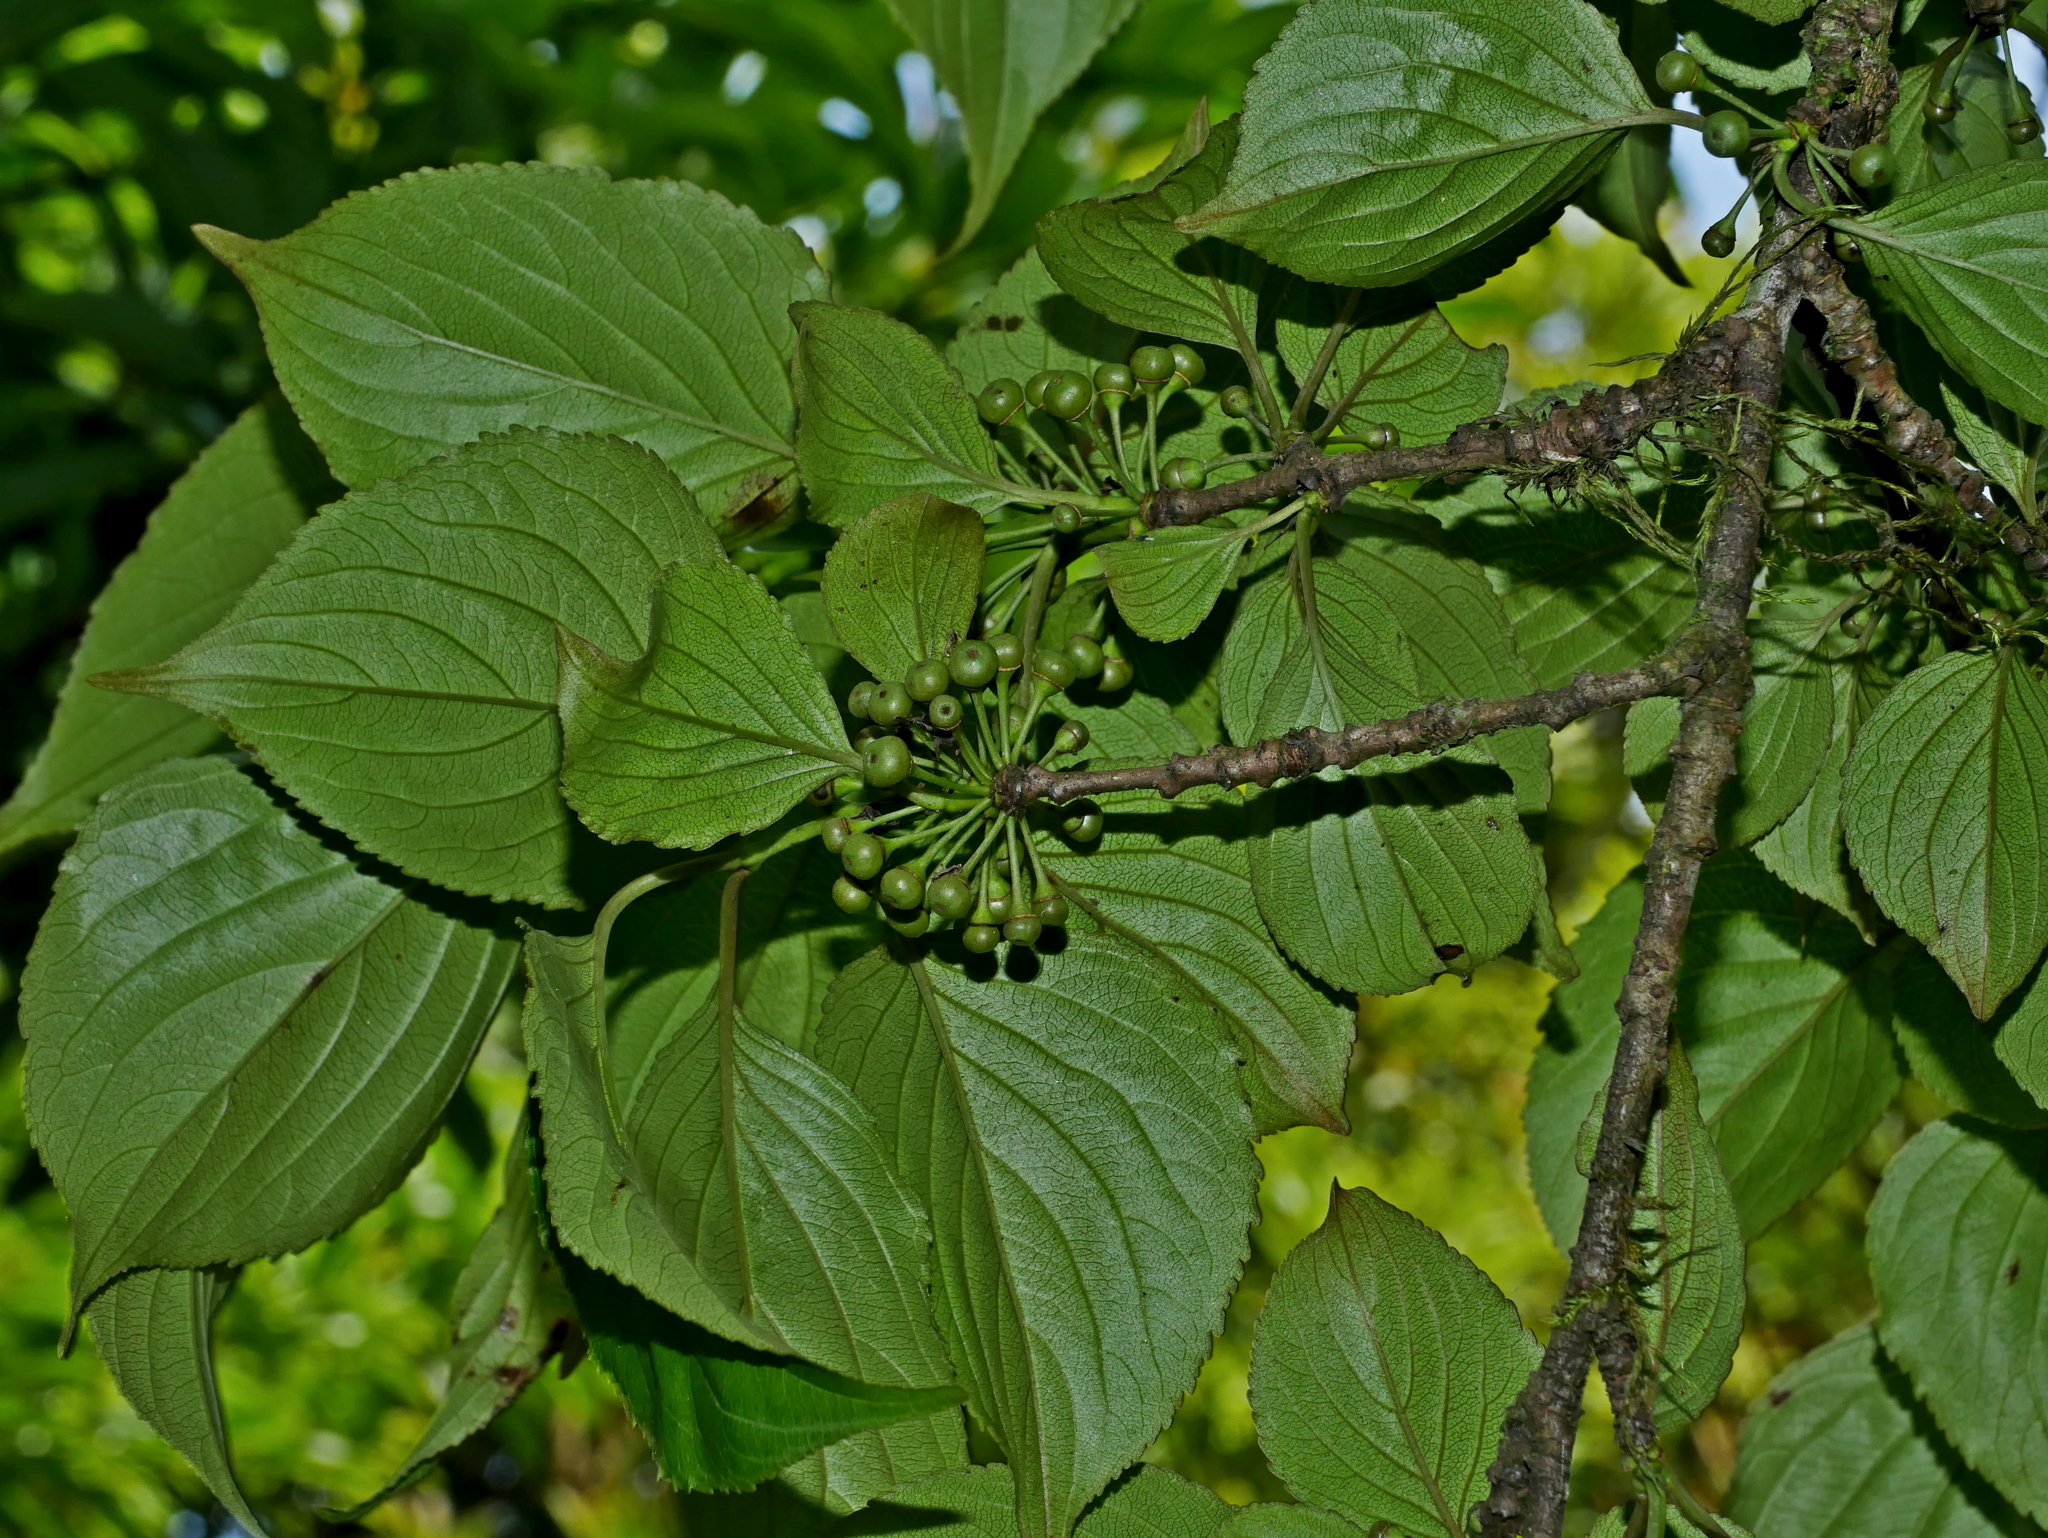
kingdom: Plantae
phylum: Tracheophyta
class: Magnoliopsida
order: Rosales
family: Rhamnaceae
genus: Rhamnus
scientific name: Rhamnus nakaharae
